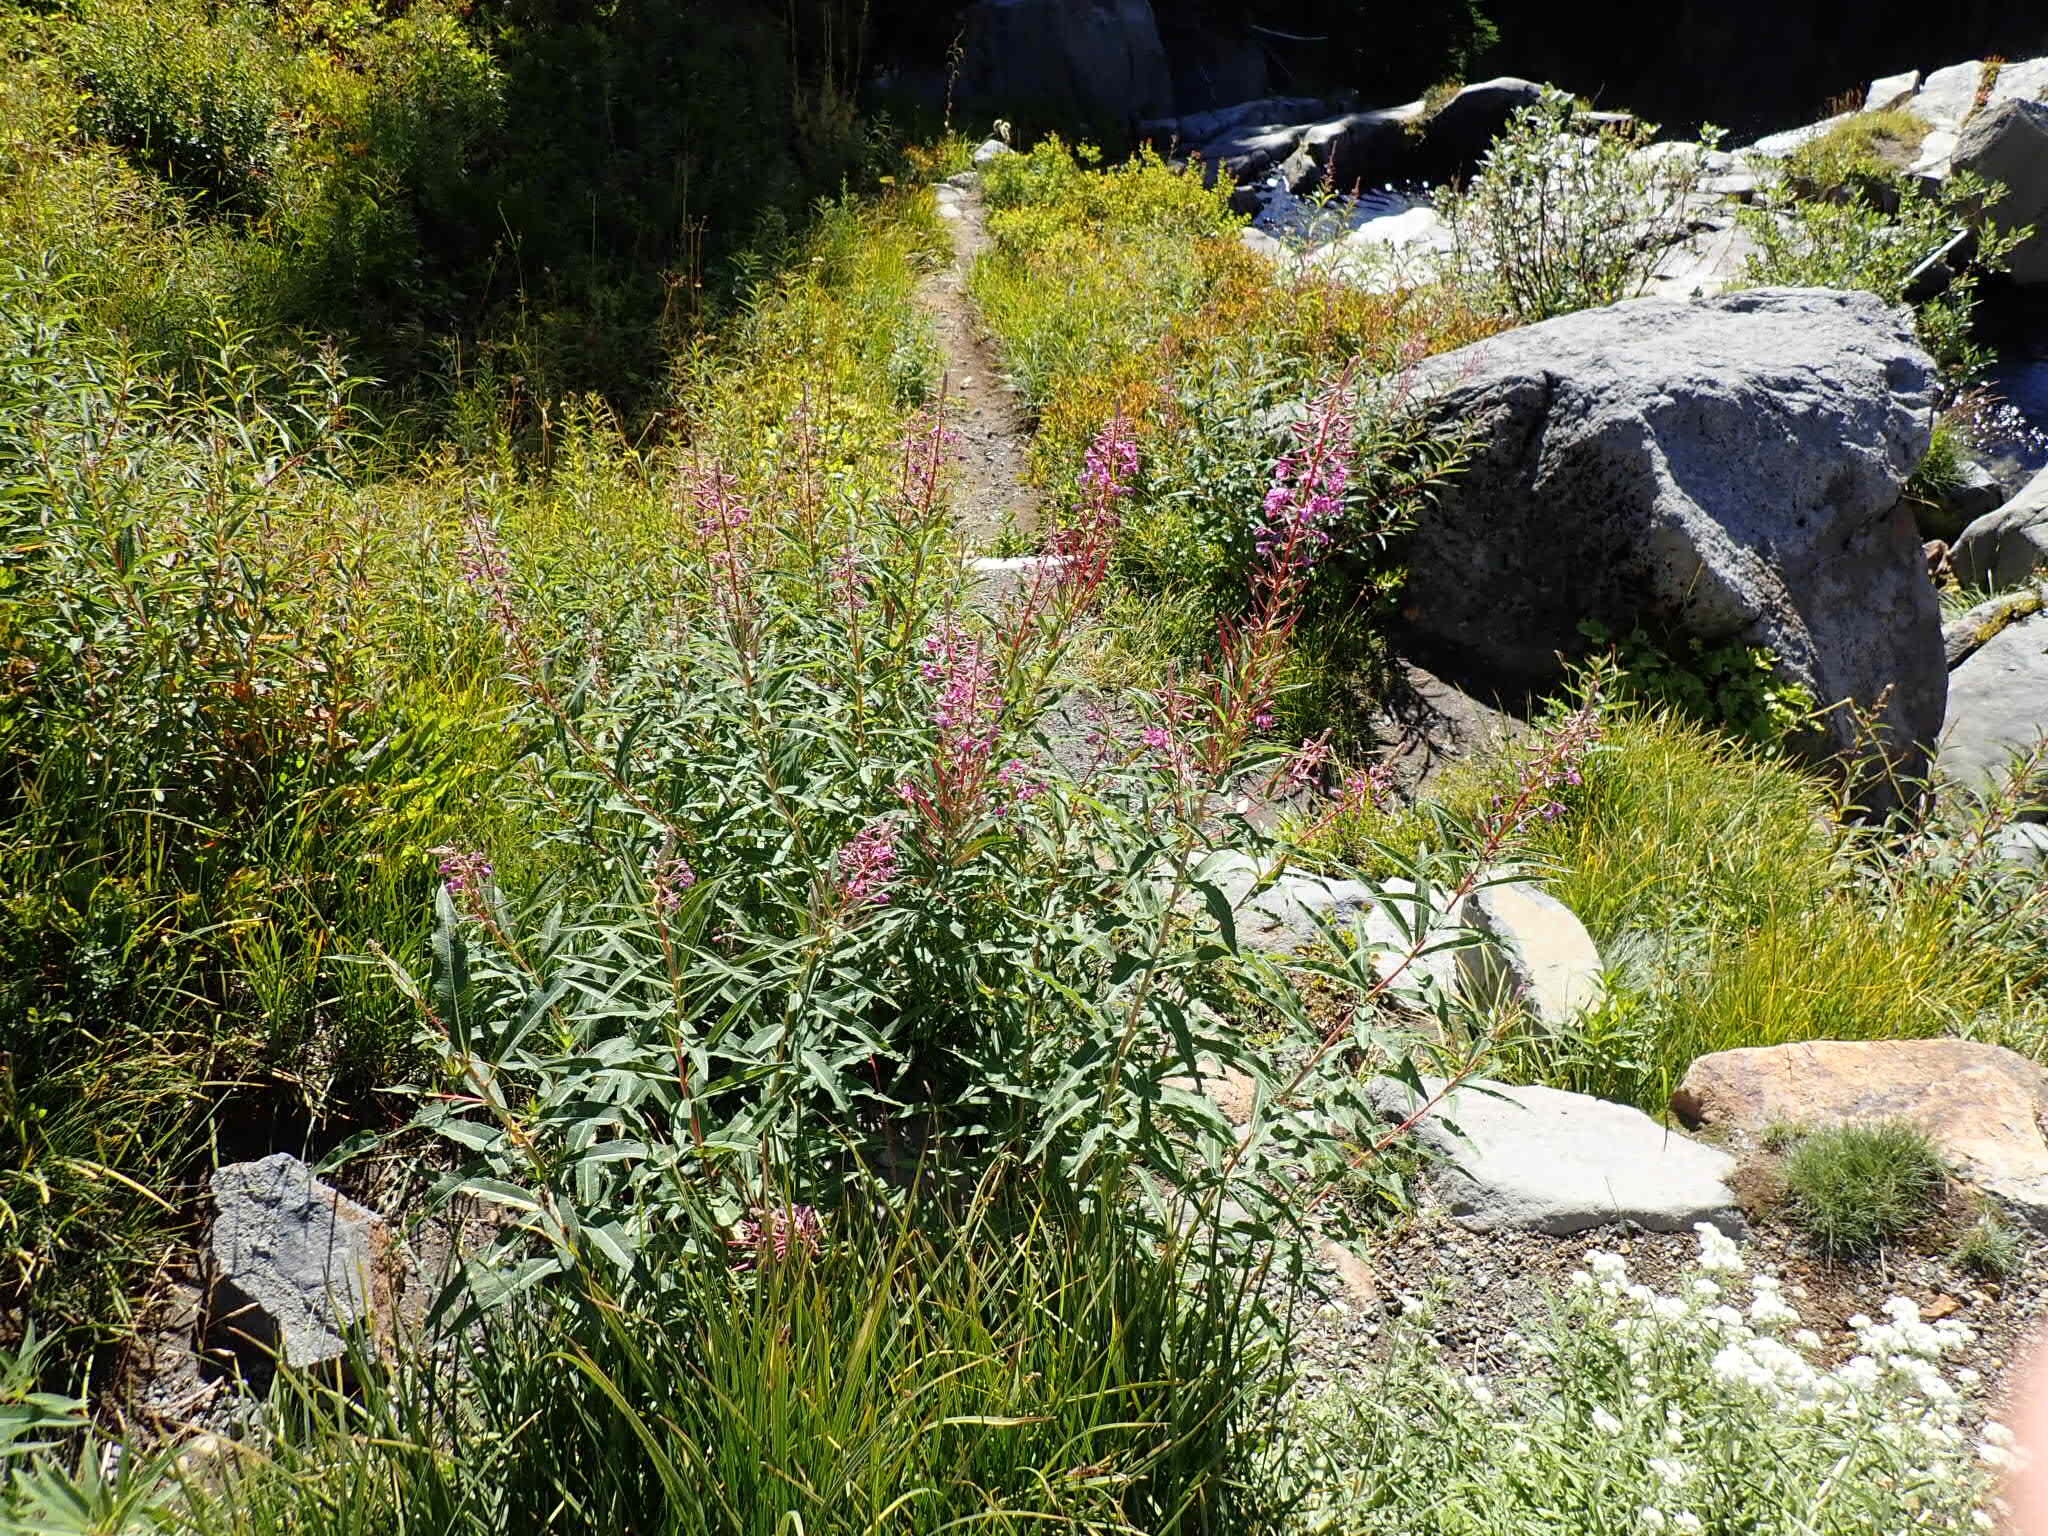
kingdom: Plantae
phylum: Tracheophyta
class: Magnoliopsida
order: Myrtales
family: Onagraceae
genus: Chamaenerion
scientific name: Chamaenerion angustifolium
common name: Fireweed
